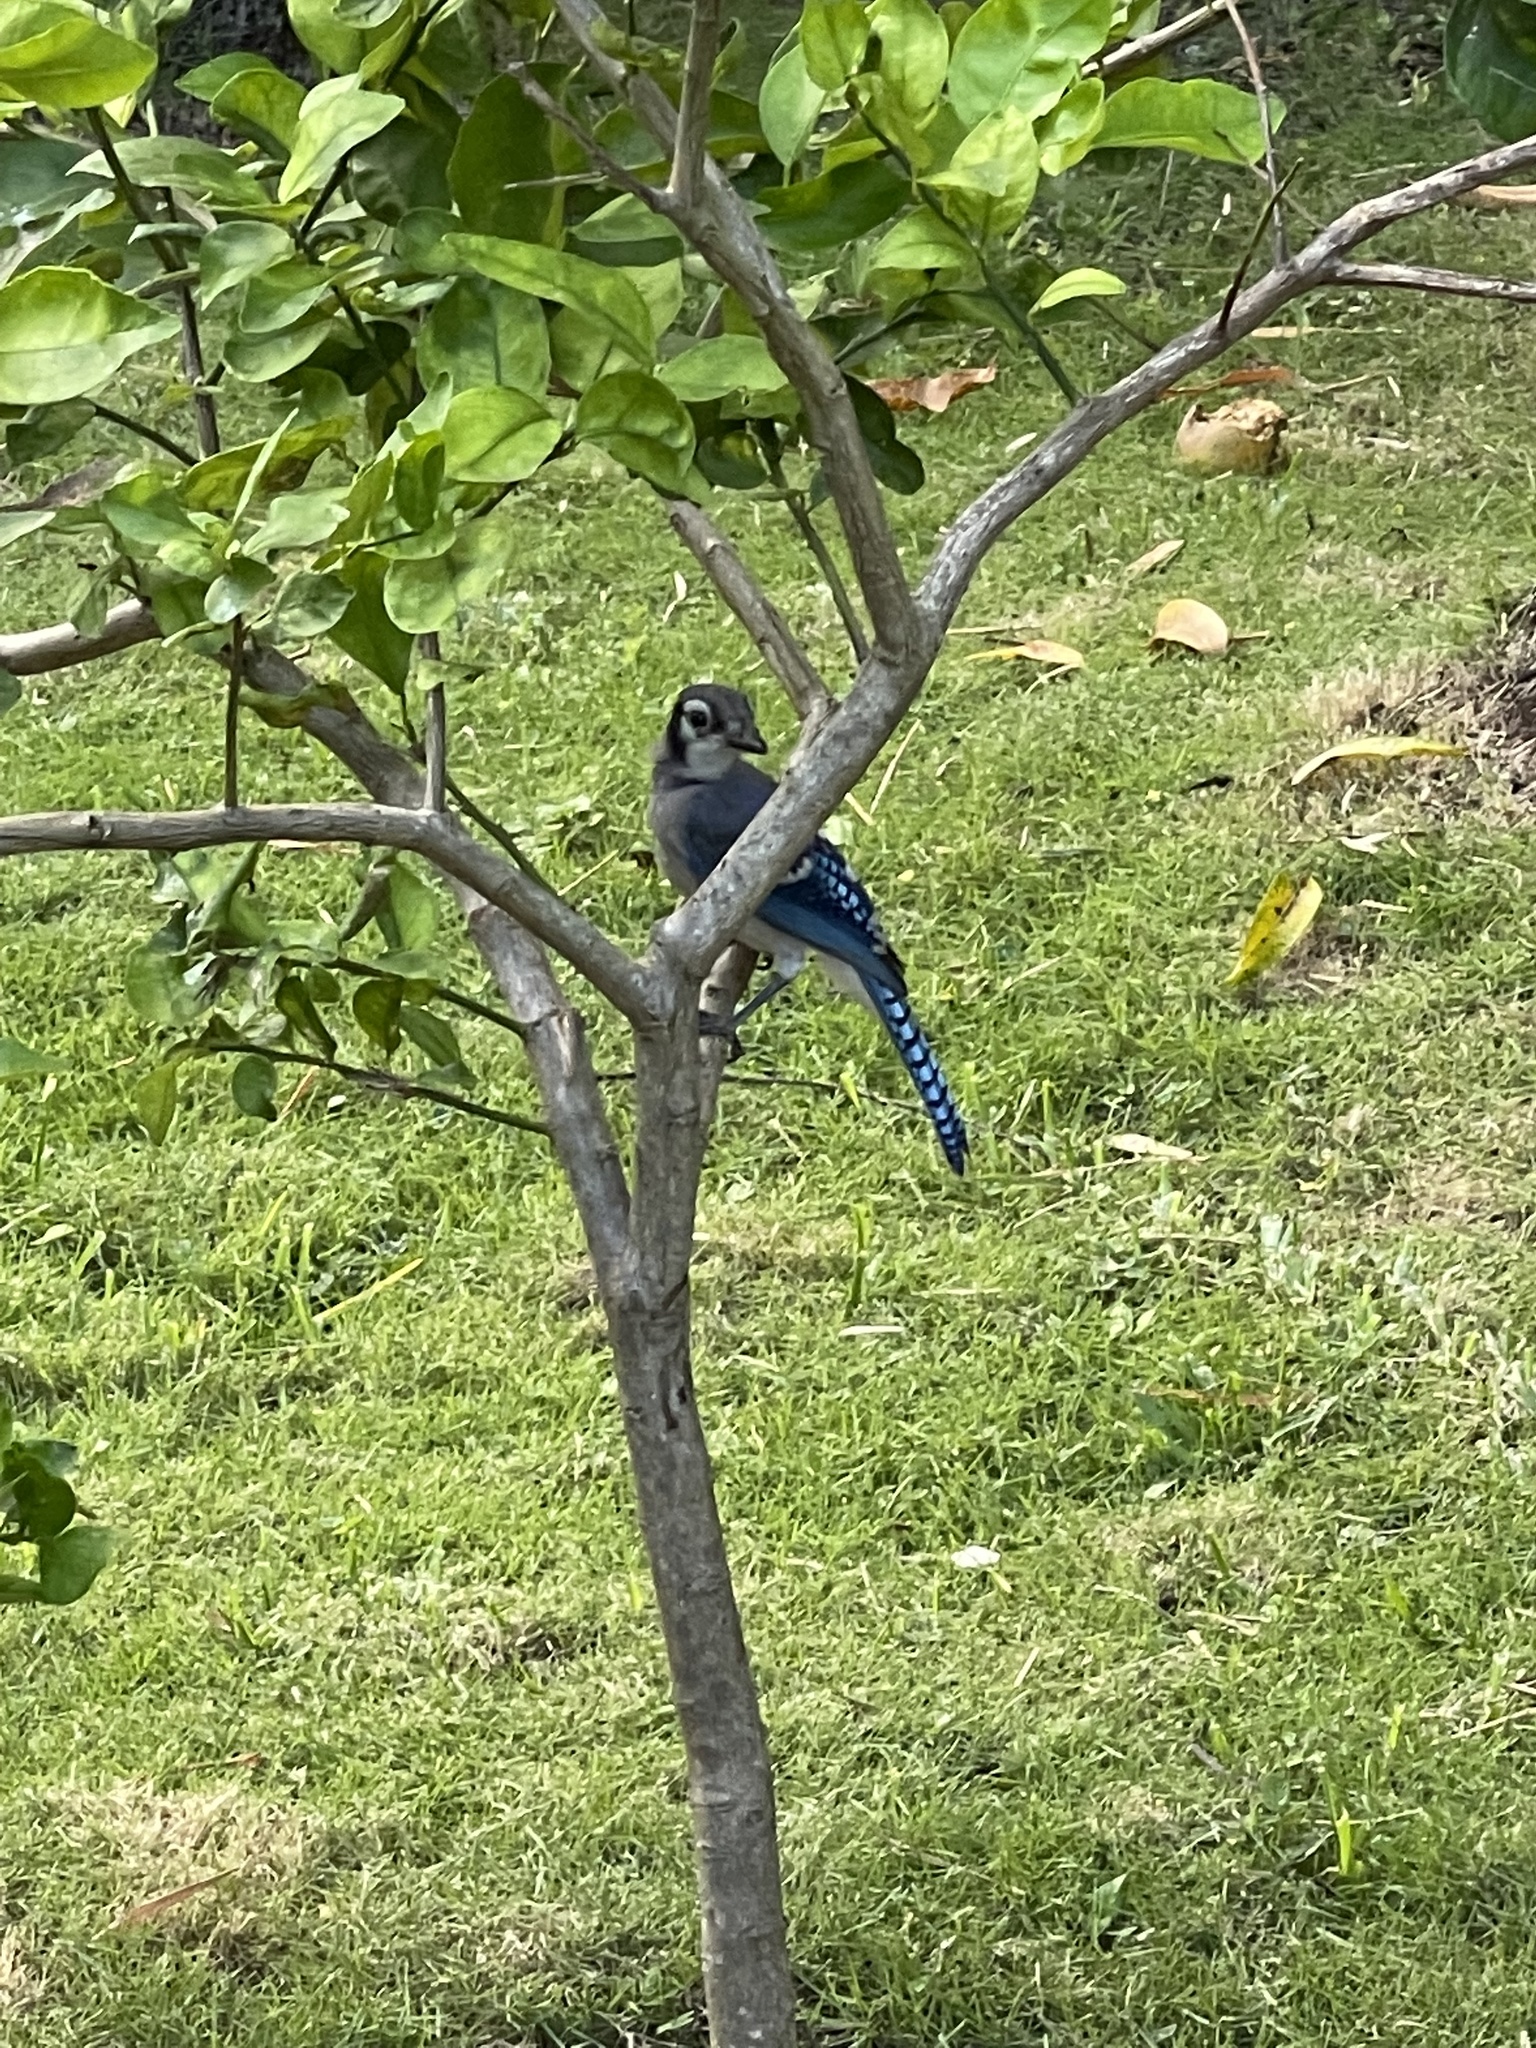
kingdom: Animalia
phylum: Chordata
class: Aves
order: Passeriformes
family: Corvidae
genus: Cyanocitta
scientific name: Cyanocitta cristata
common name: Blue jay
